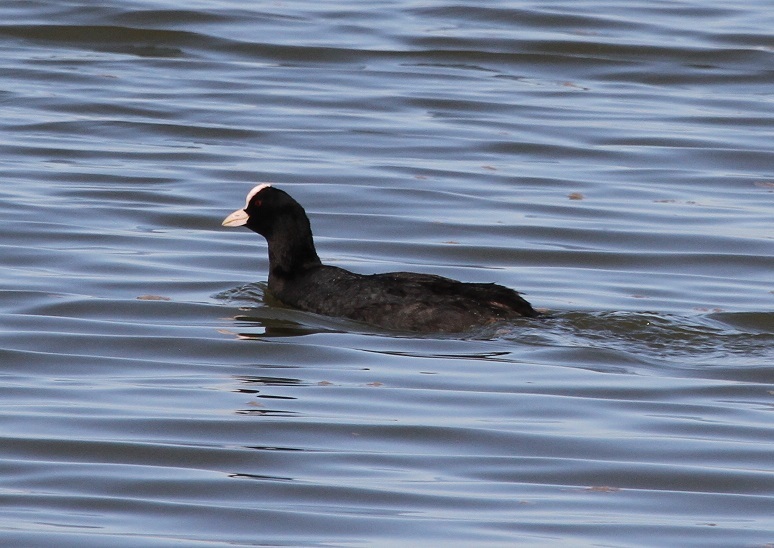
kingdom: Animalia
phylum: Chordata
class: Aves
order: Gruiformes
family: Rallidae
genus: Fulica
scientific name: Fulica atra
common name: Eurasian coot
